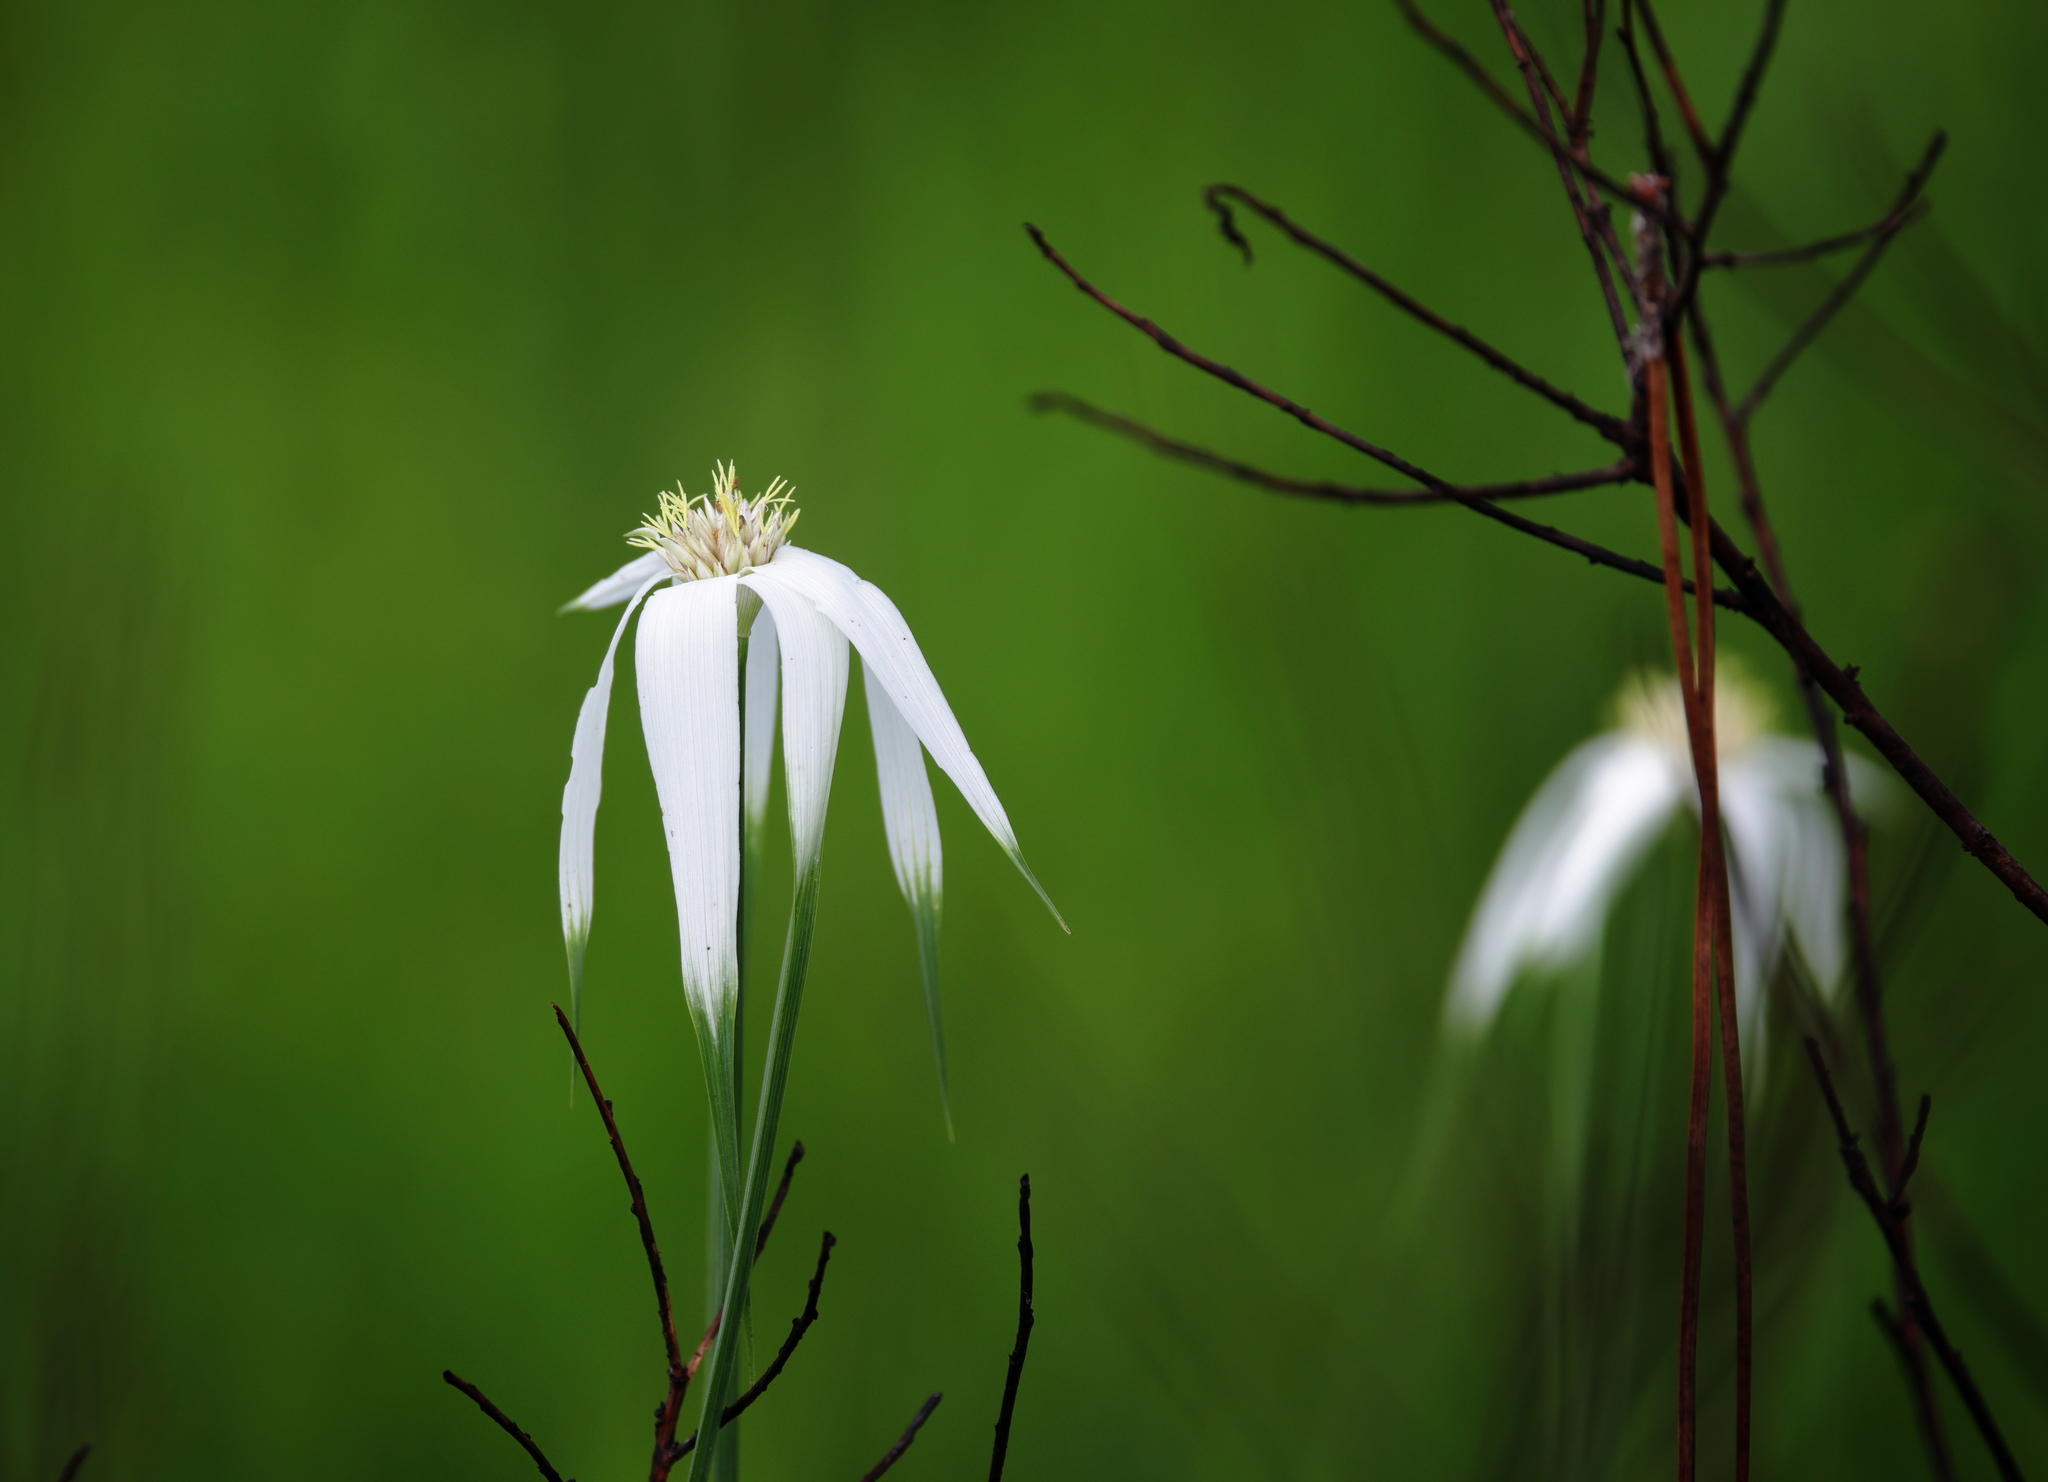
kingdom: Plantae
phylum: Tracheophyta
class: Liliopsida
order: Poales
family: Cyperaceae
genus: Rhynchospora
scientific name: Rhynchospora latifolia
